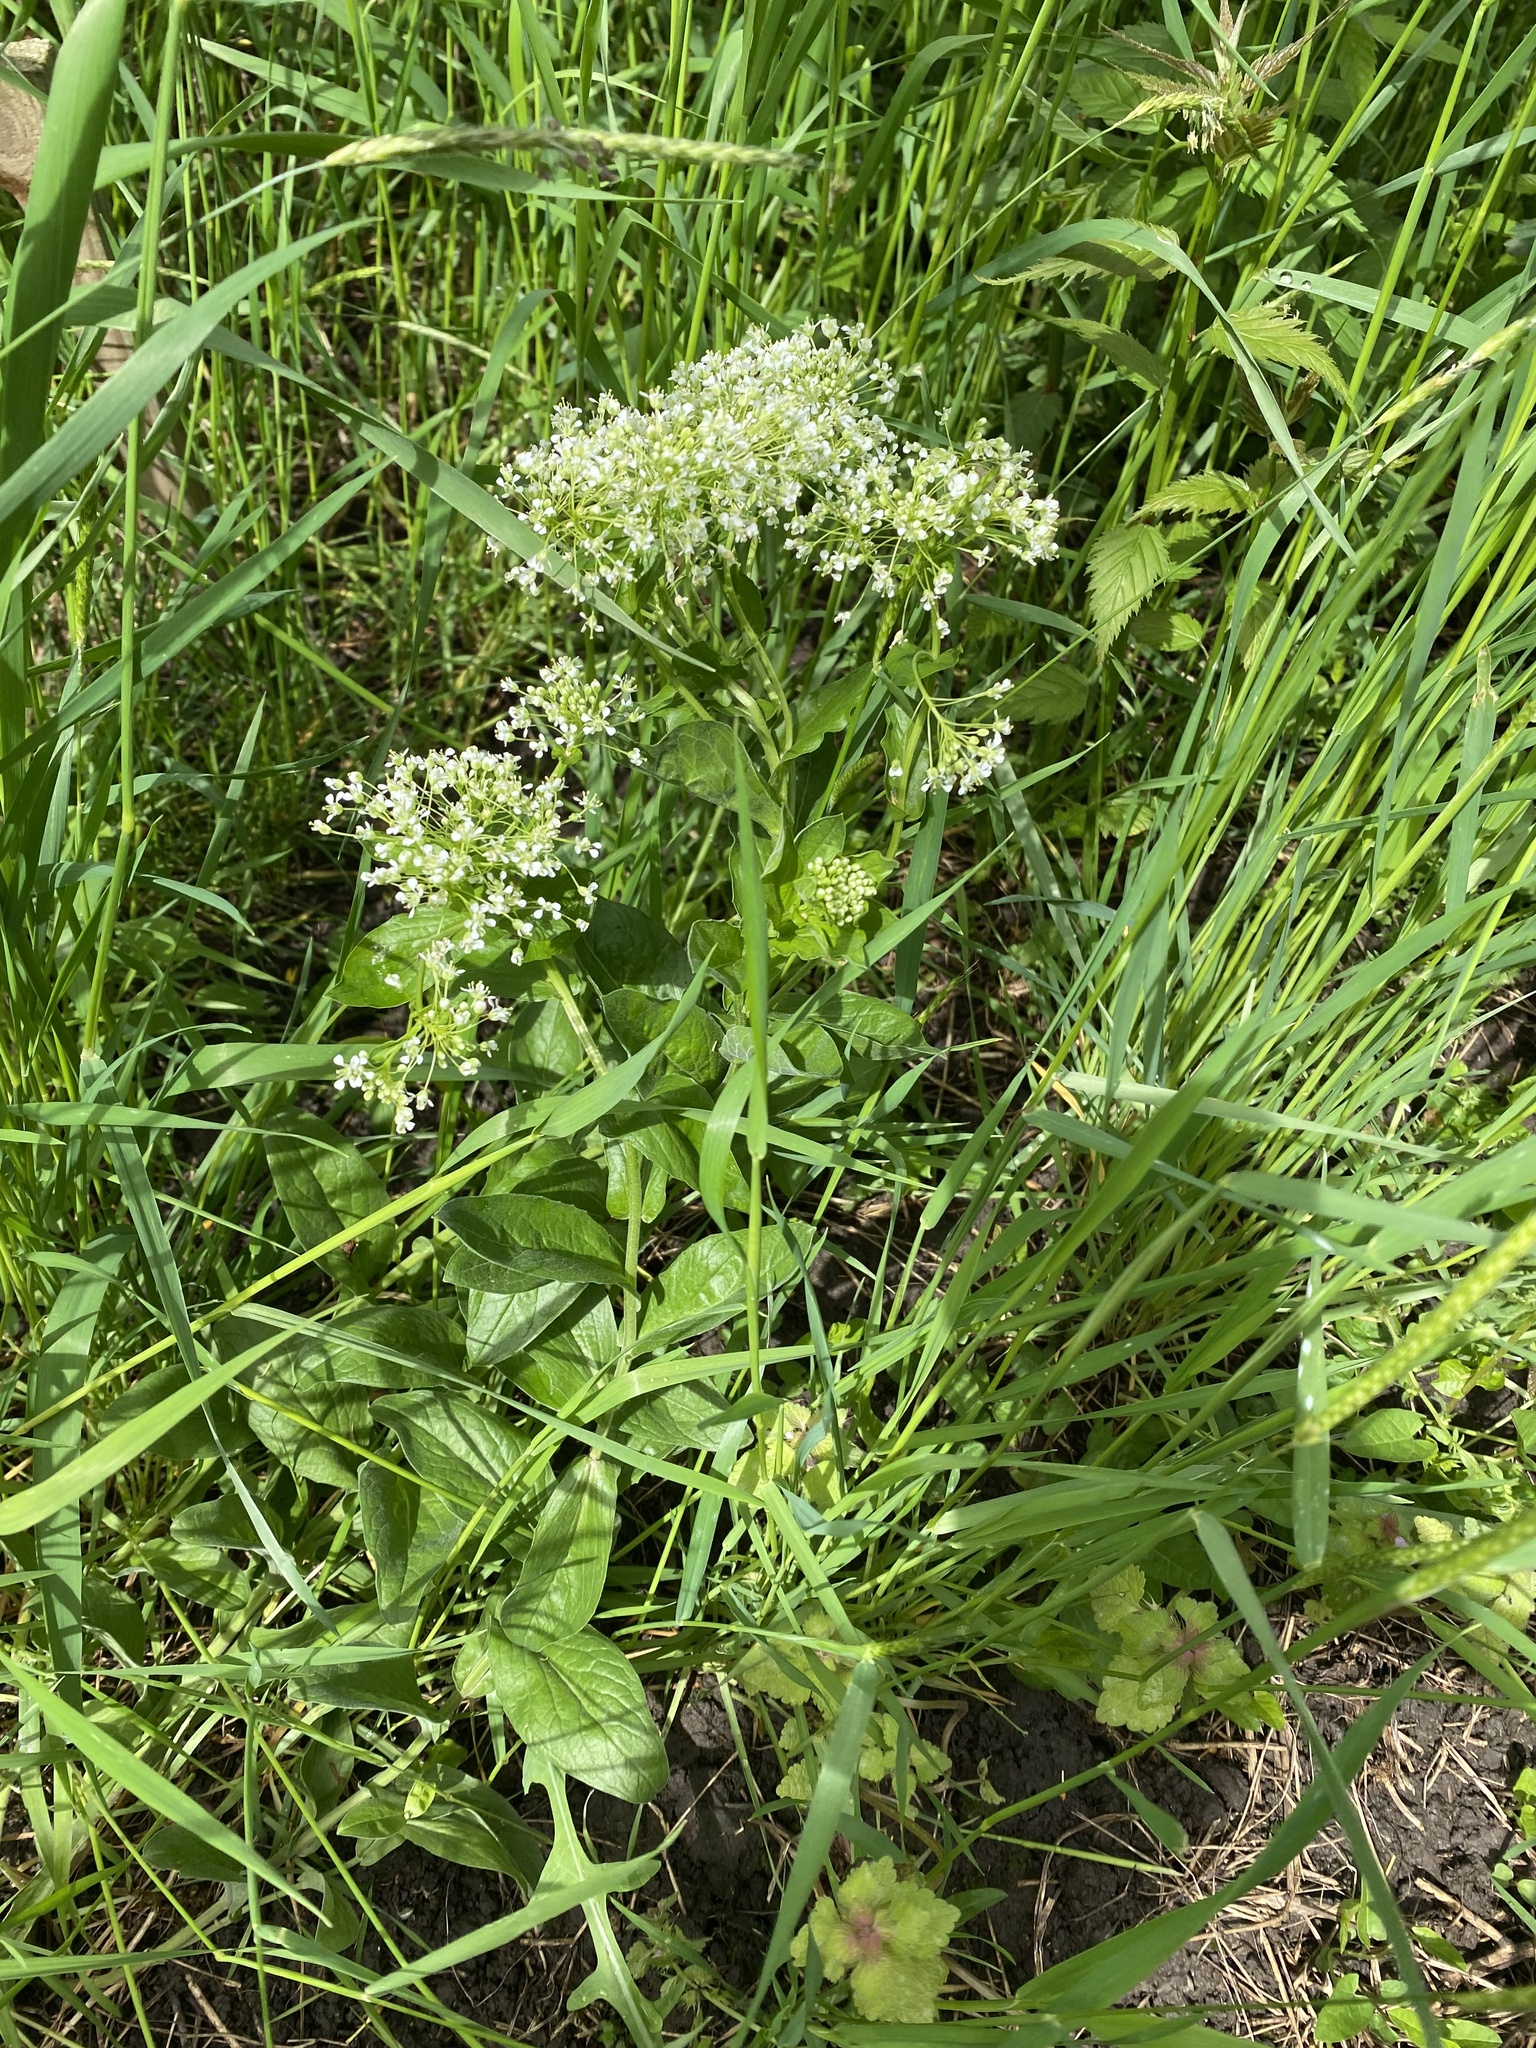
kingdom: Plantae
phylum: Tracheophyta
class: Magnoliopsida
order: Brassicales
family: Brassicaceae
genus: Lepidium
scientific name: Lepidium draba
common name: Hoary cress
